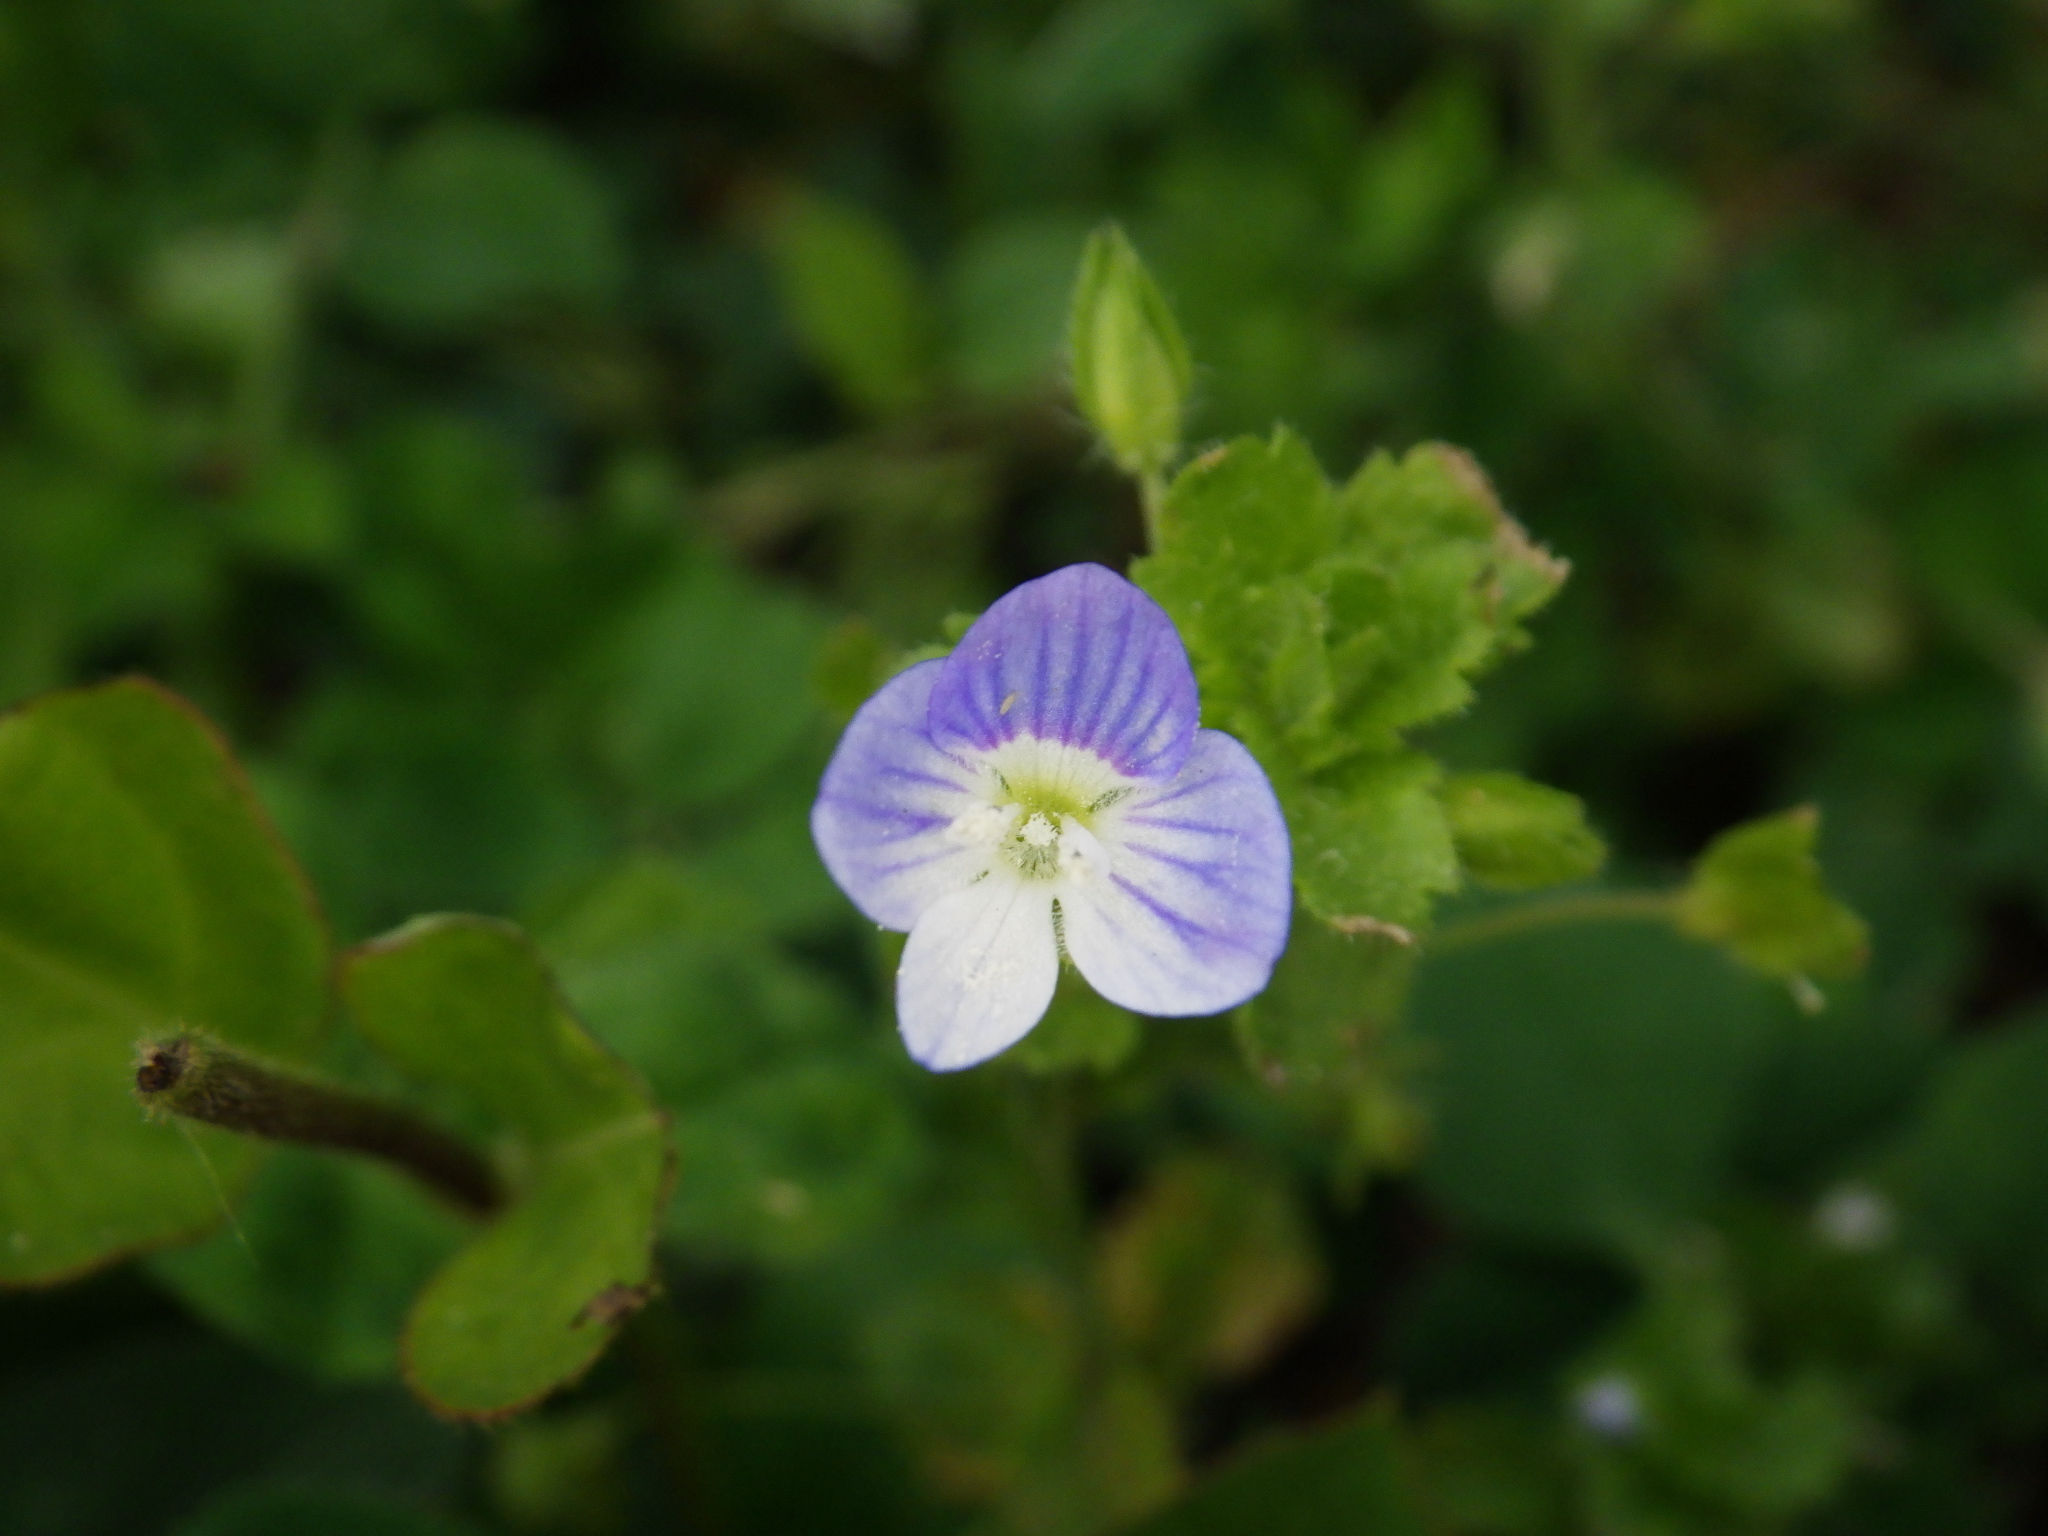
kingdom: Plantae
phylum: Tracheophyta
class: Magnoliopsida
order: Lamiales
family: Plantaginaceae
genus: Veronica
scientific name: Veronica persica
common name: Common field-speedwell
